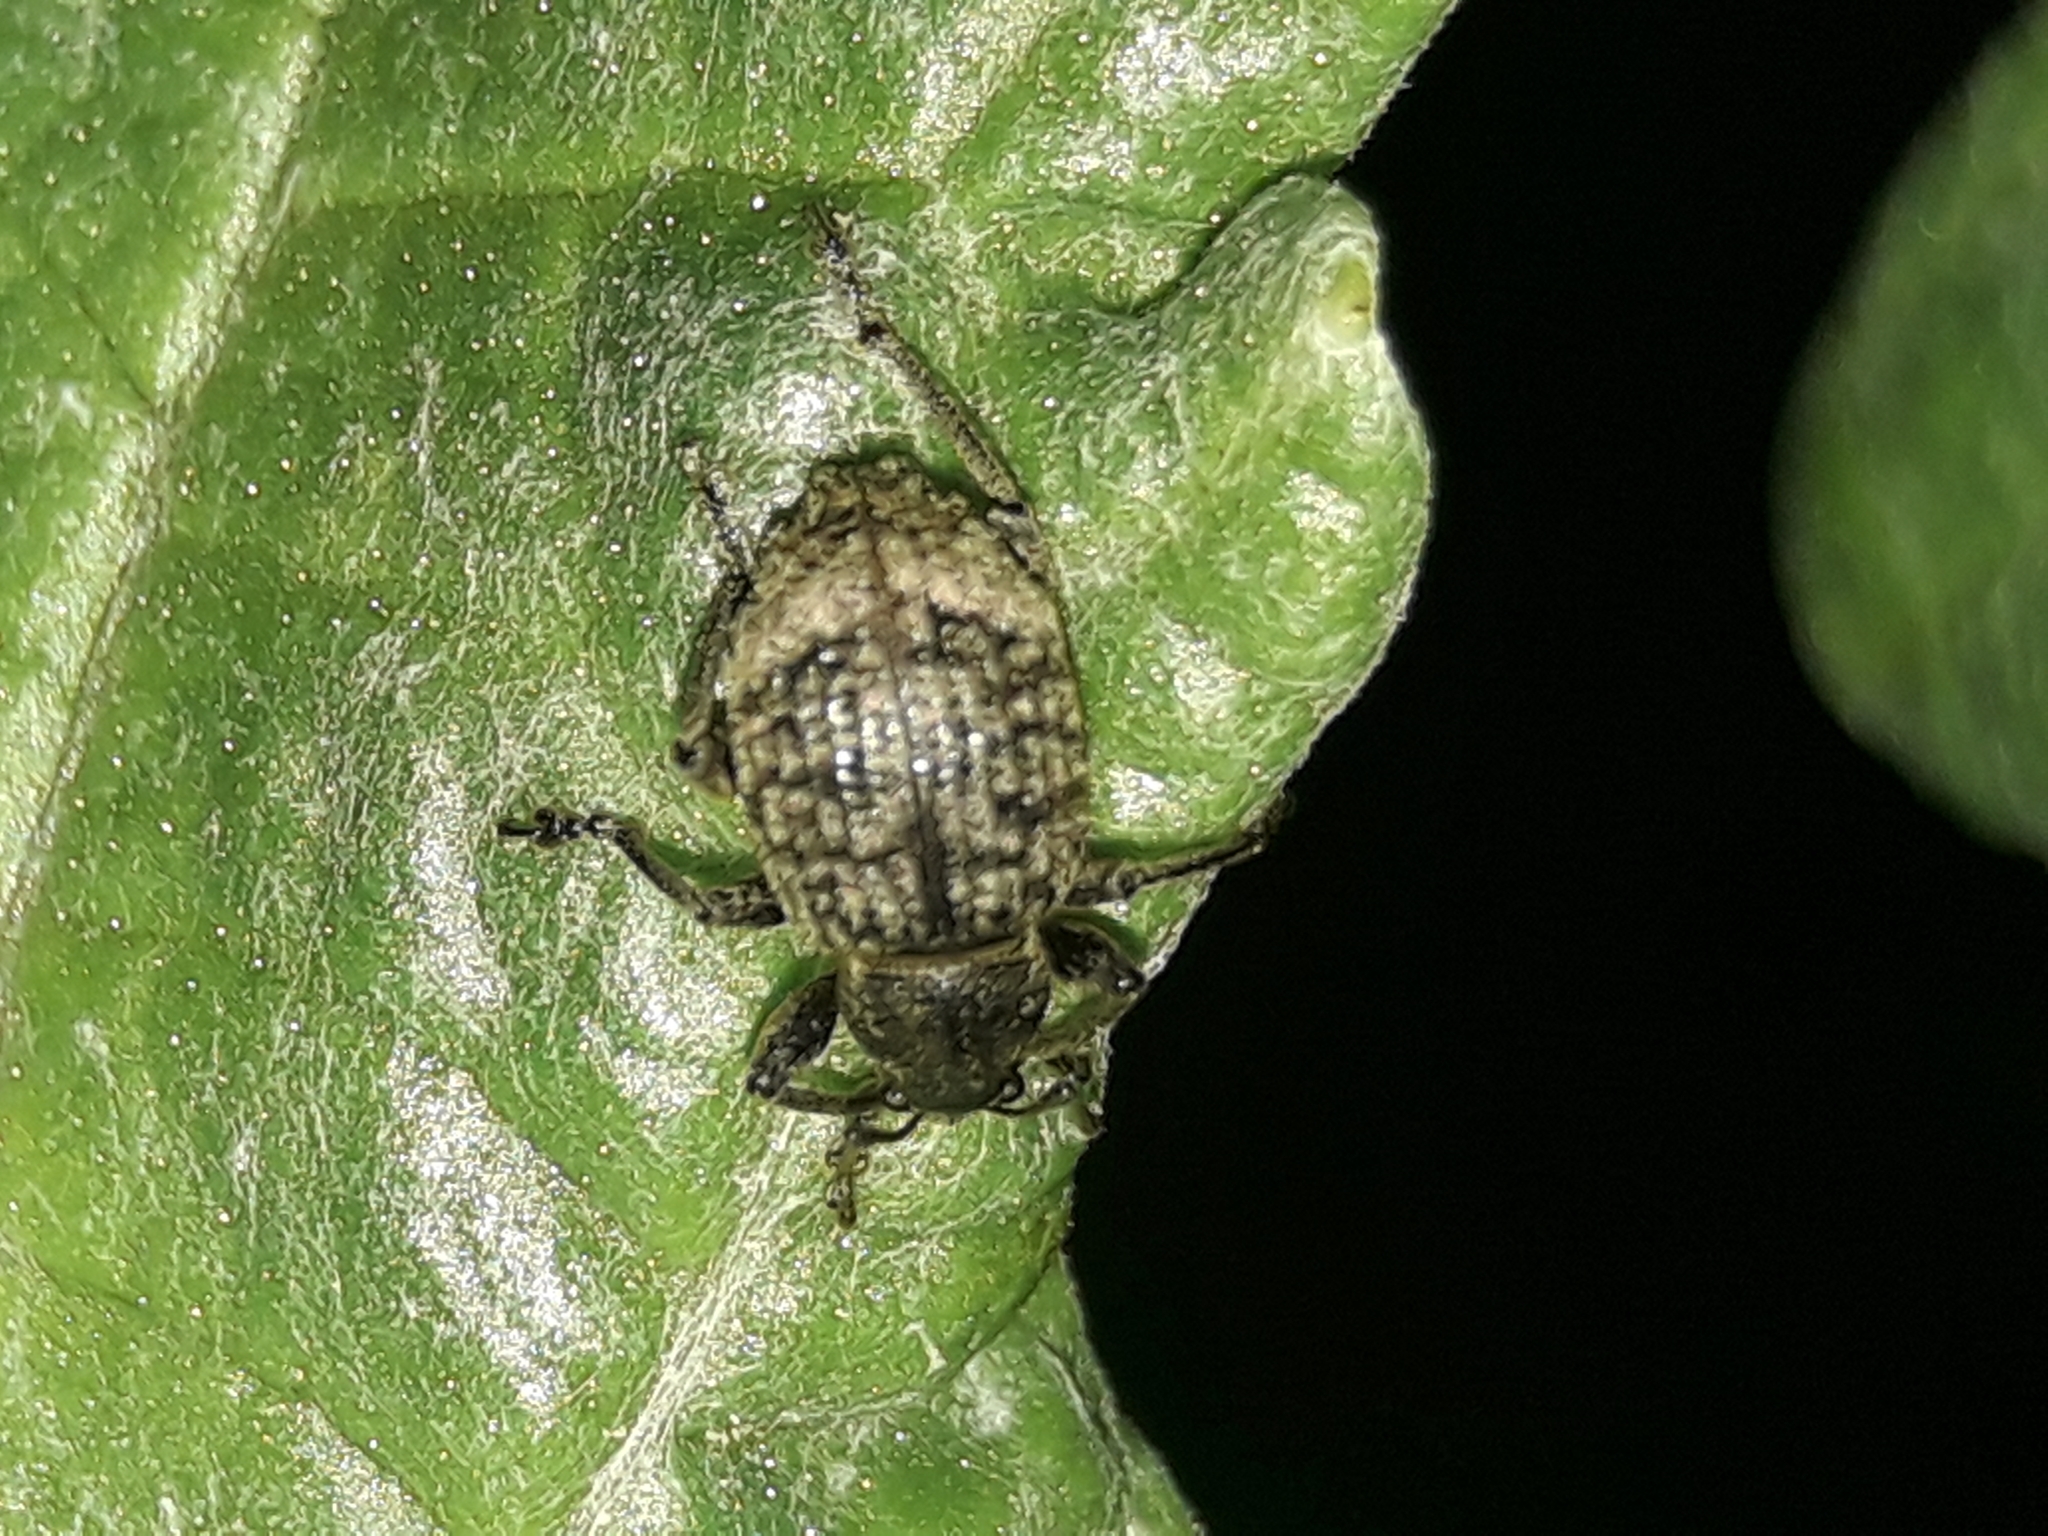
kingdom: Animalia
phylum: Arthropoda
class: Insecta
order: Coleoptera
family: Curculionidae
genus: Phlyctinus
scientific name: Phlyctinus callosus
